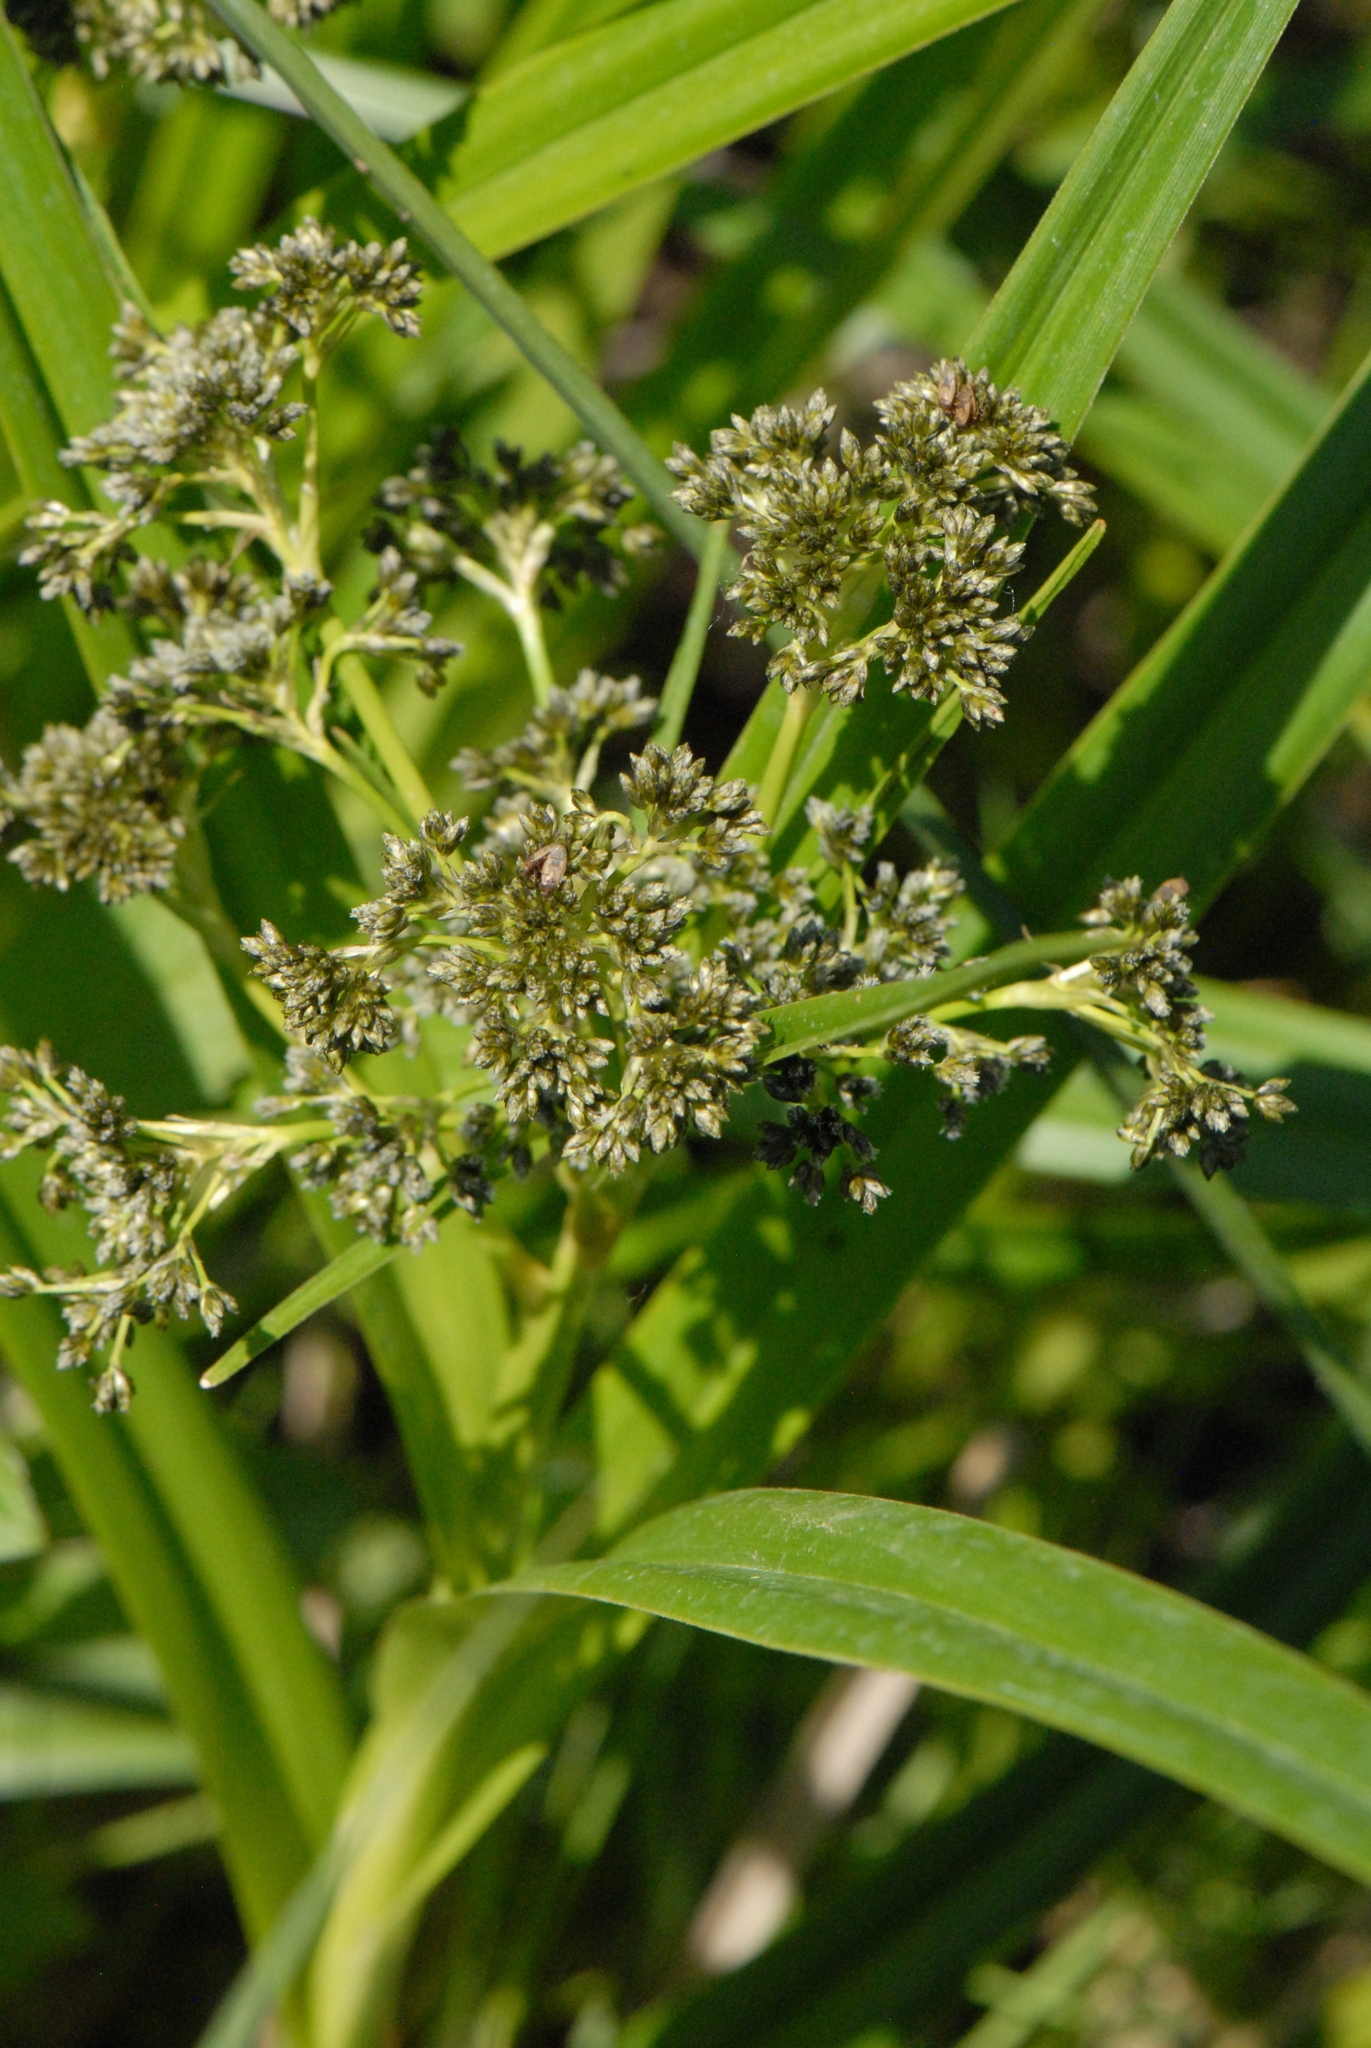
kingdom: Plantae
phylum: Tracheophyta
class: Liliopsida
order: Poales
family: Cyperaceae
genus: Scirpus
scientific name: Scirpus sylvaticus
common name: Wood club-rush
